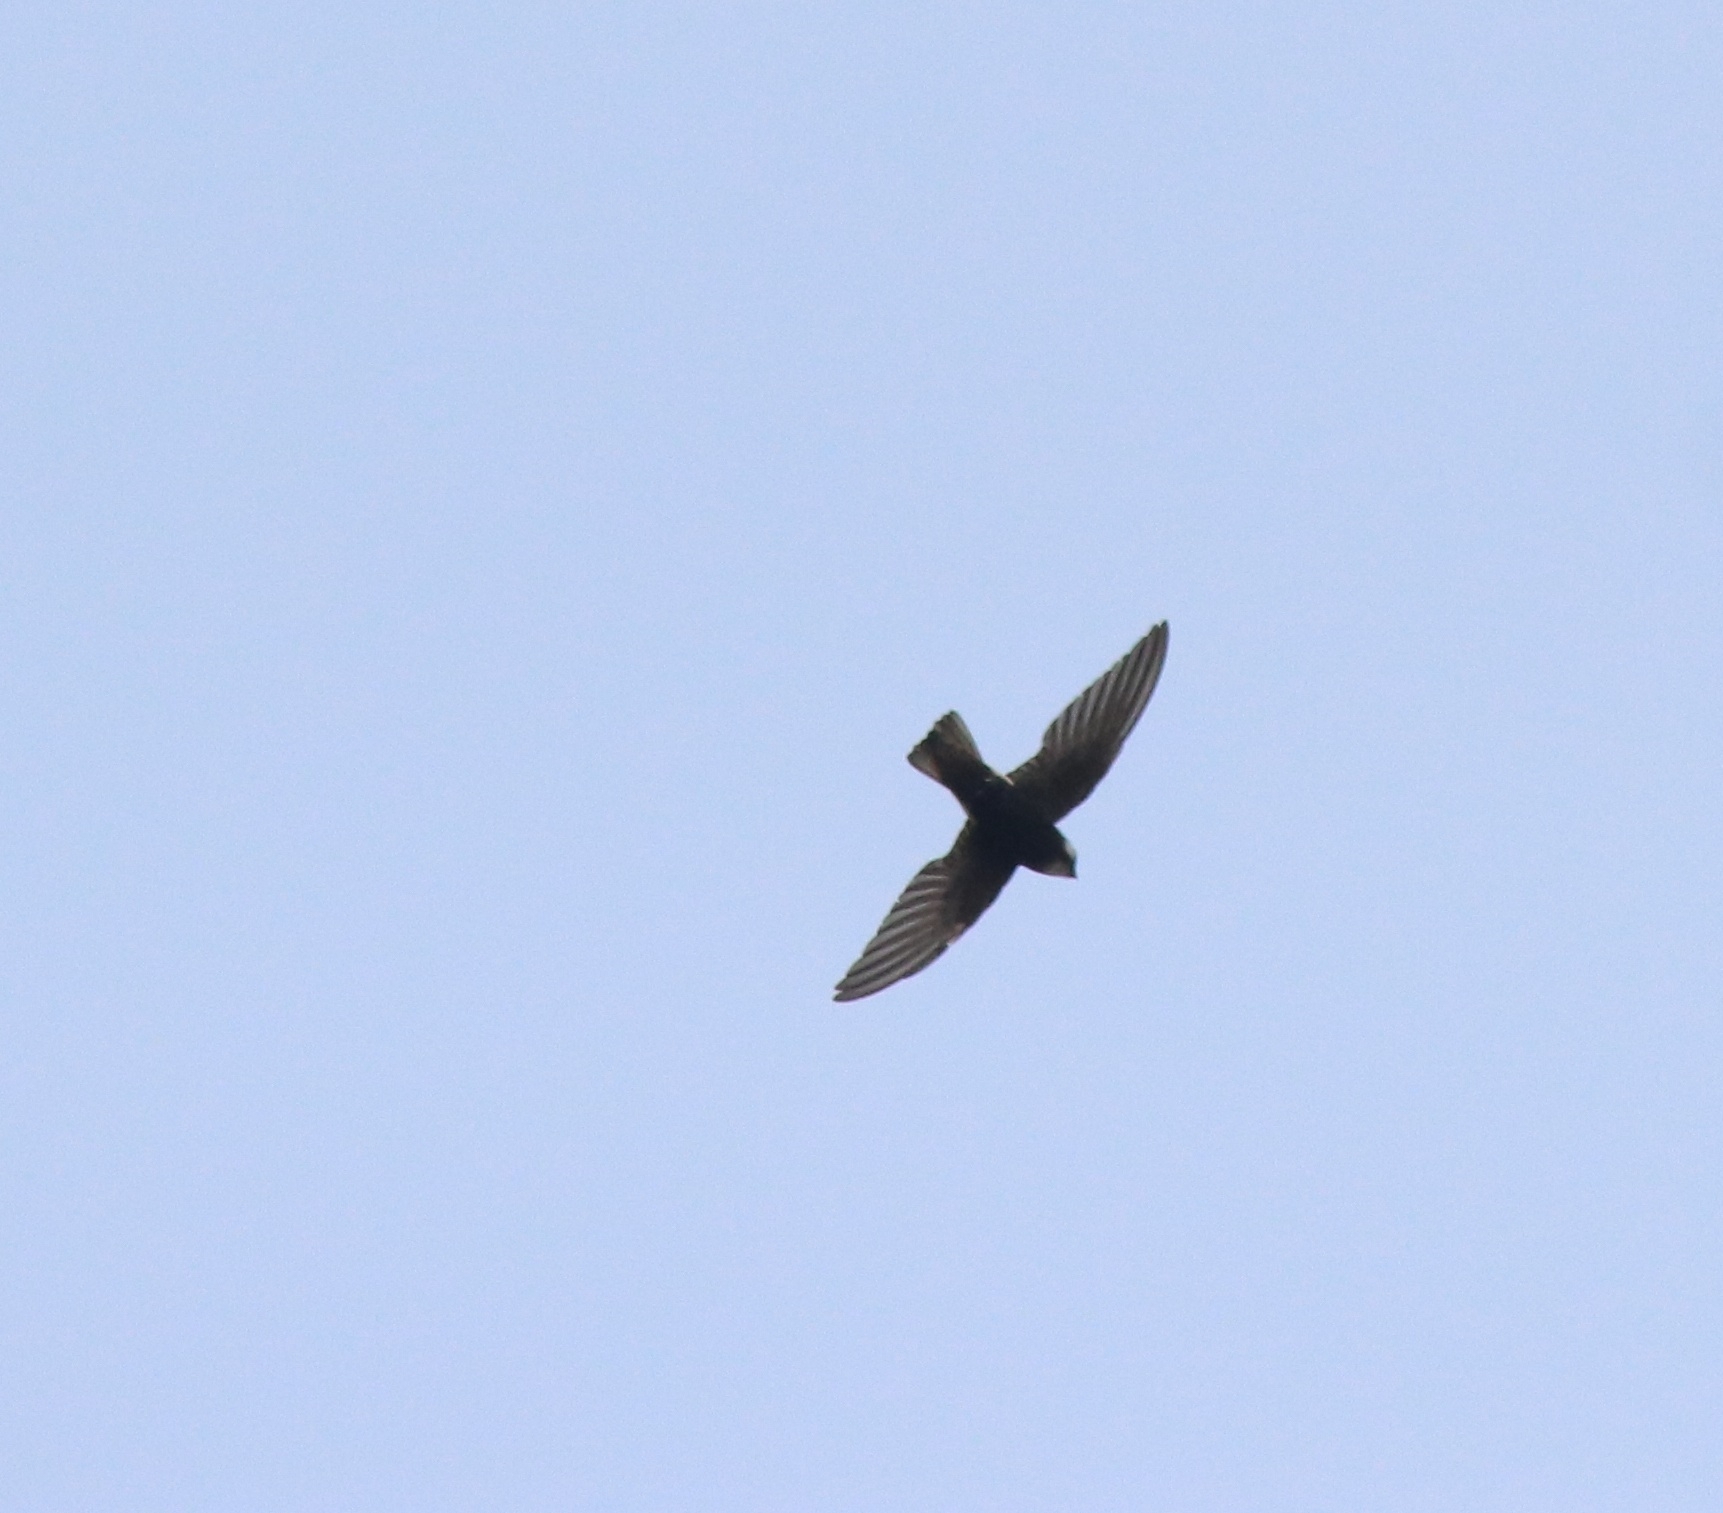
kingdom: Animalia
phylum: Chordata
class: Aves
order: Apodiformes
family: Apodidae
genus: Apus
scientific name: Apus affinis
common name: Little swift
